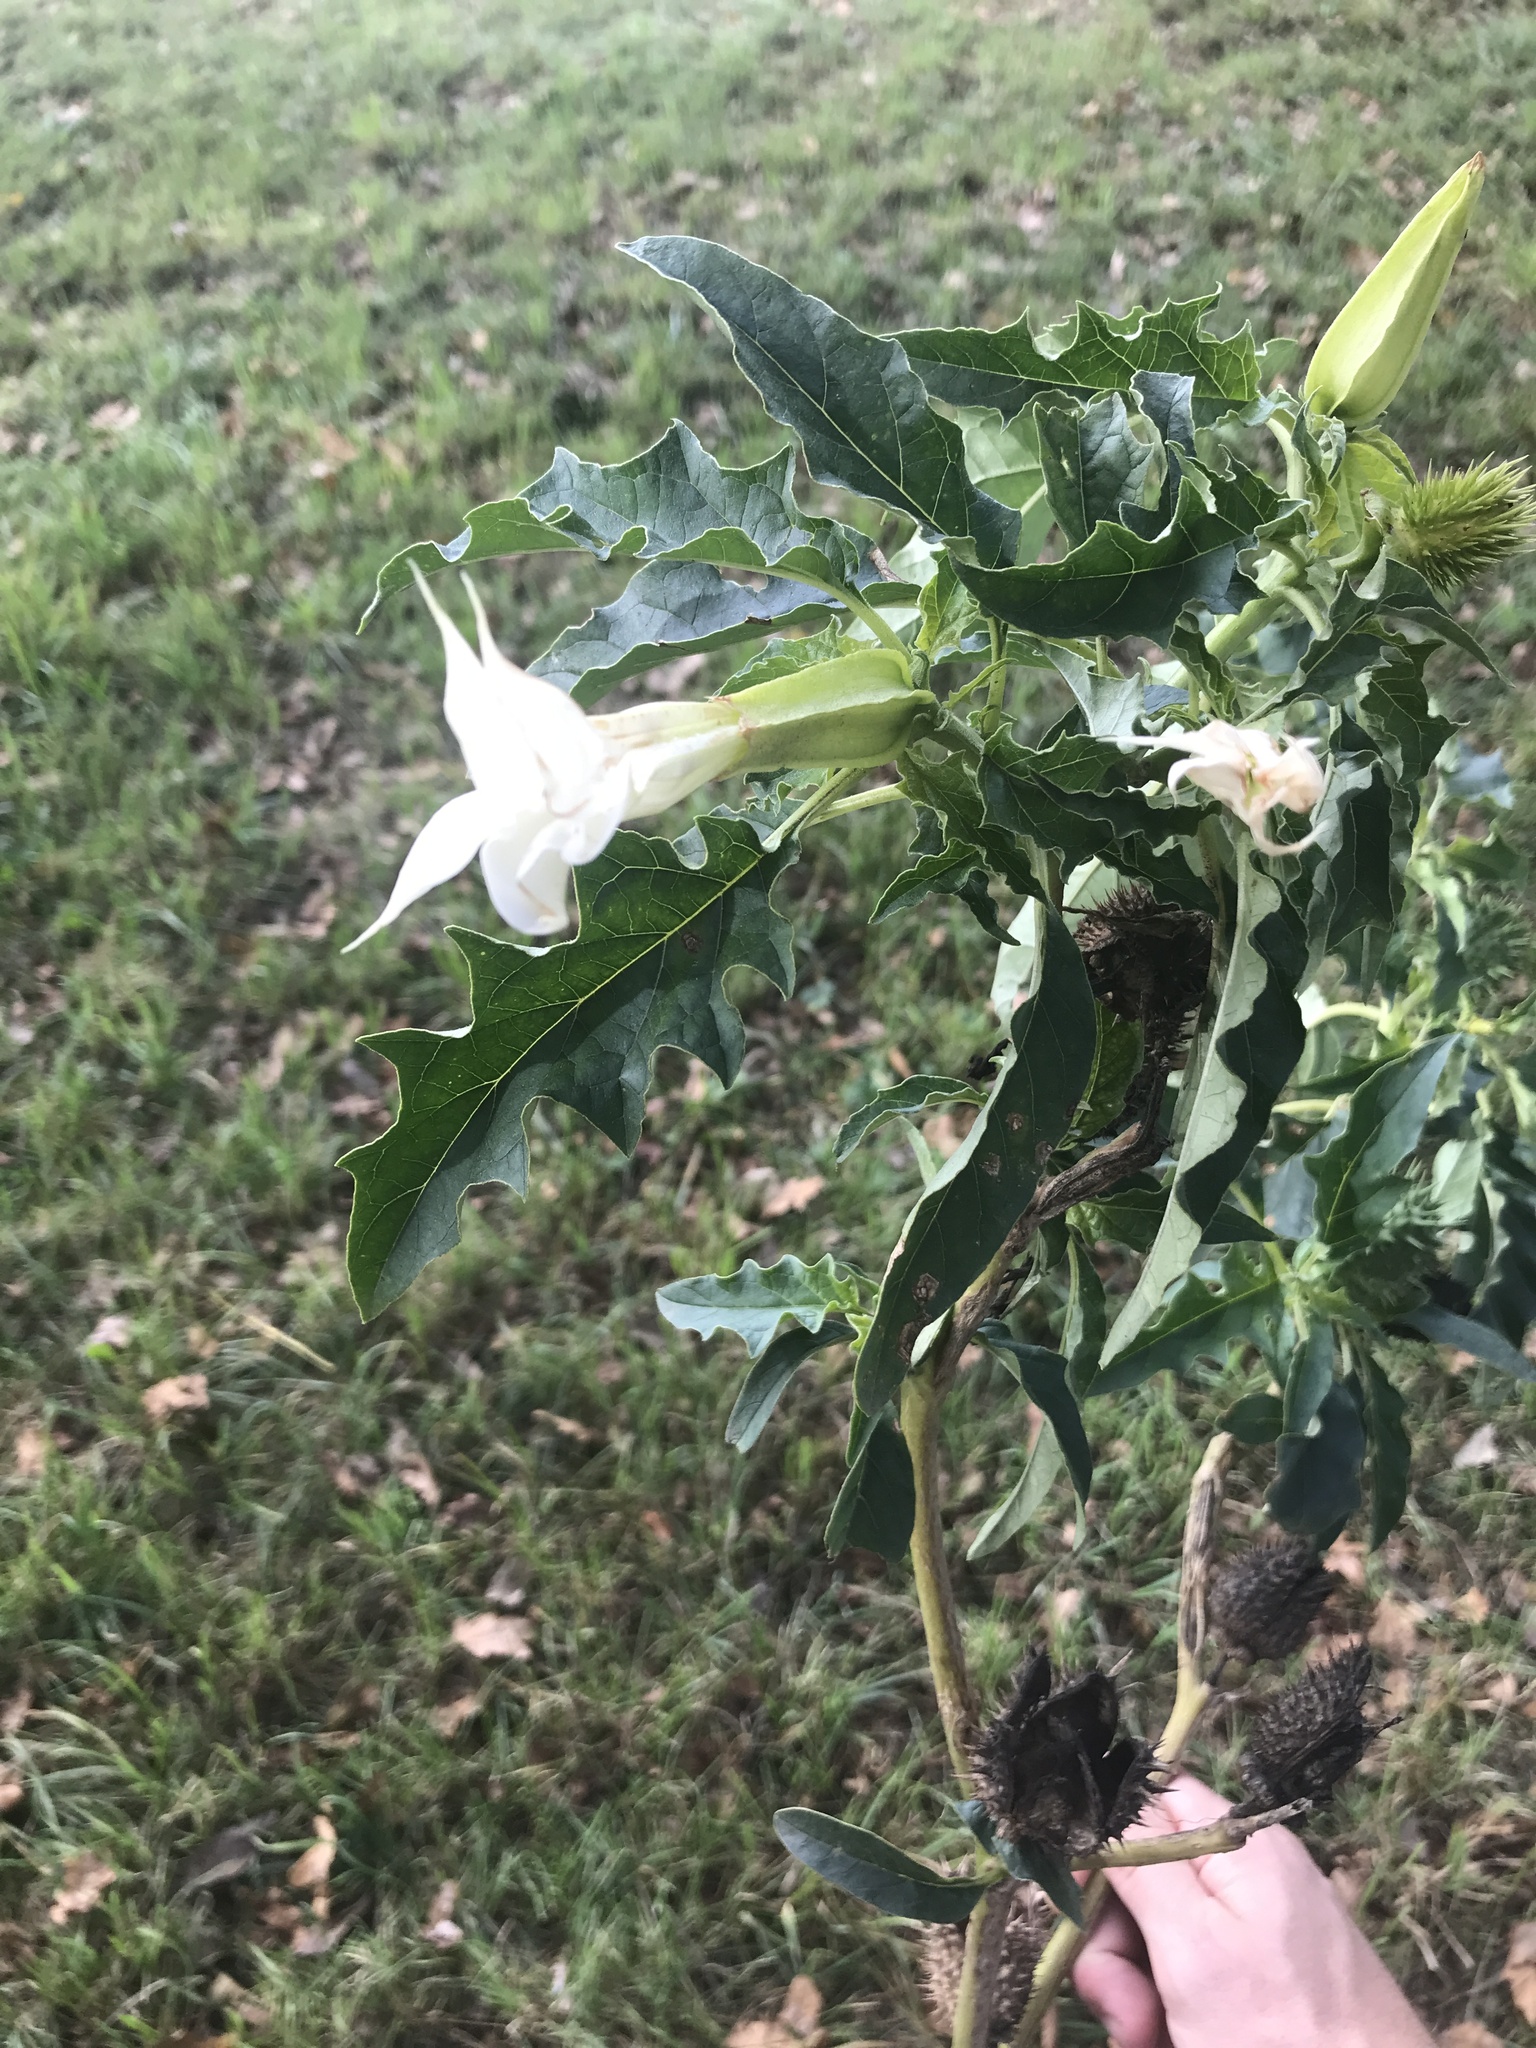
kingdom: Plantae
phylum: Tracheophyta
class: Magnoliopsida
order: Solanales
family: Solanaceae
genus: Datura
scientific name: Datura stramonium
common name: Thorn-apple
